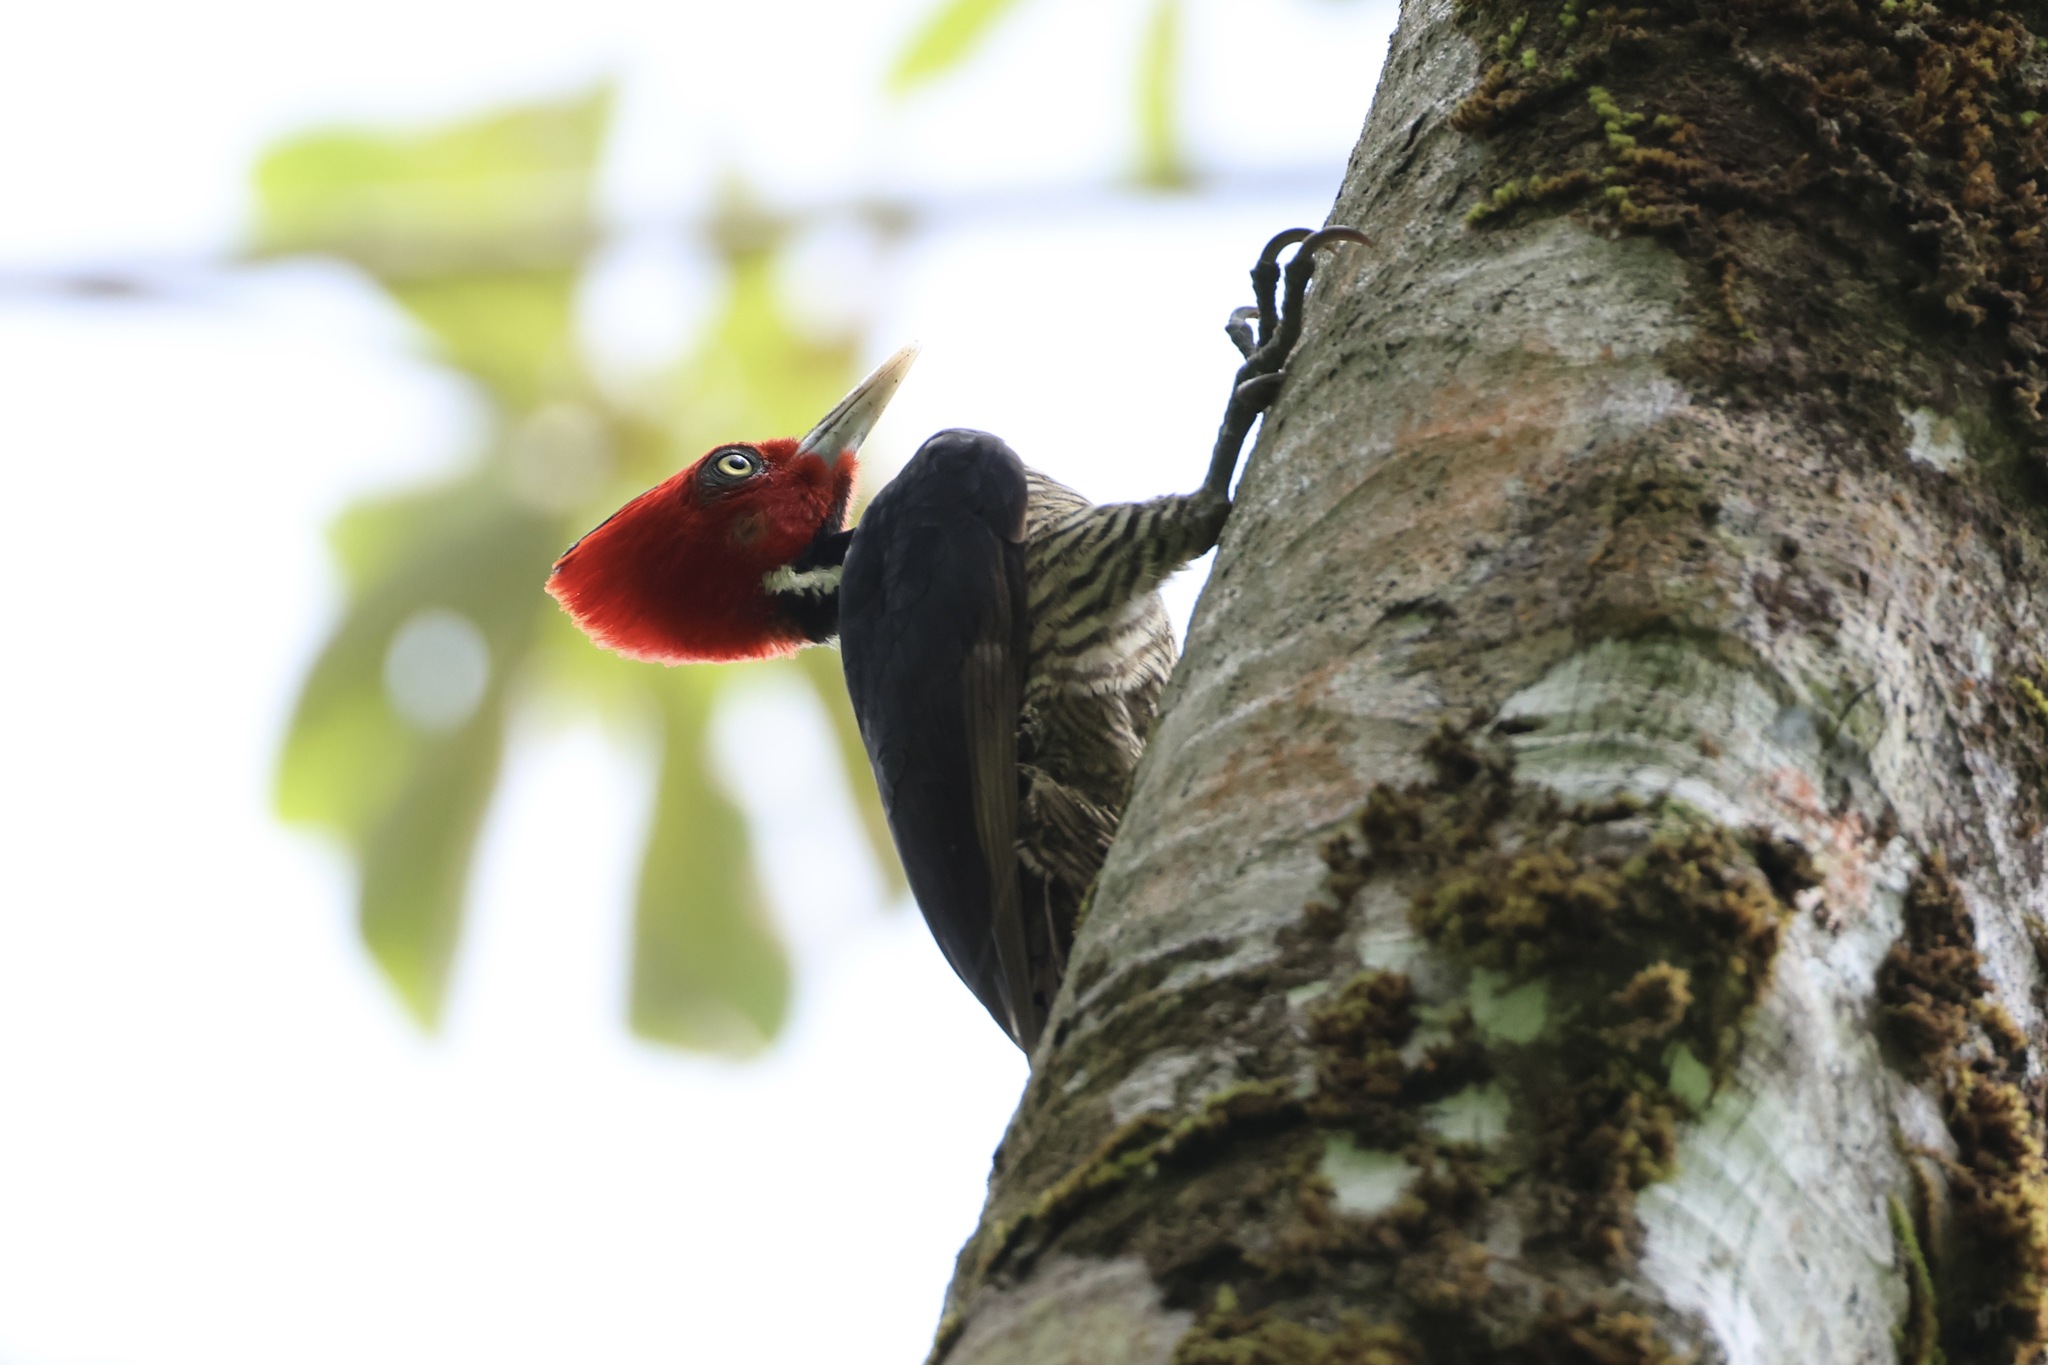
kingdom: Animalia
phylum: Chordata
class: Aves
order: Piciformes
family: Picidae
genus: Campephilus
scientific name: Campephilus guatemalensis
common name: Pale-billed woodpecker
